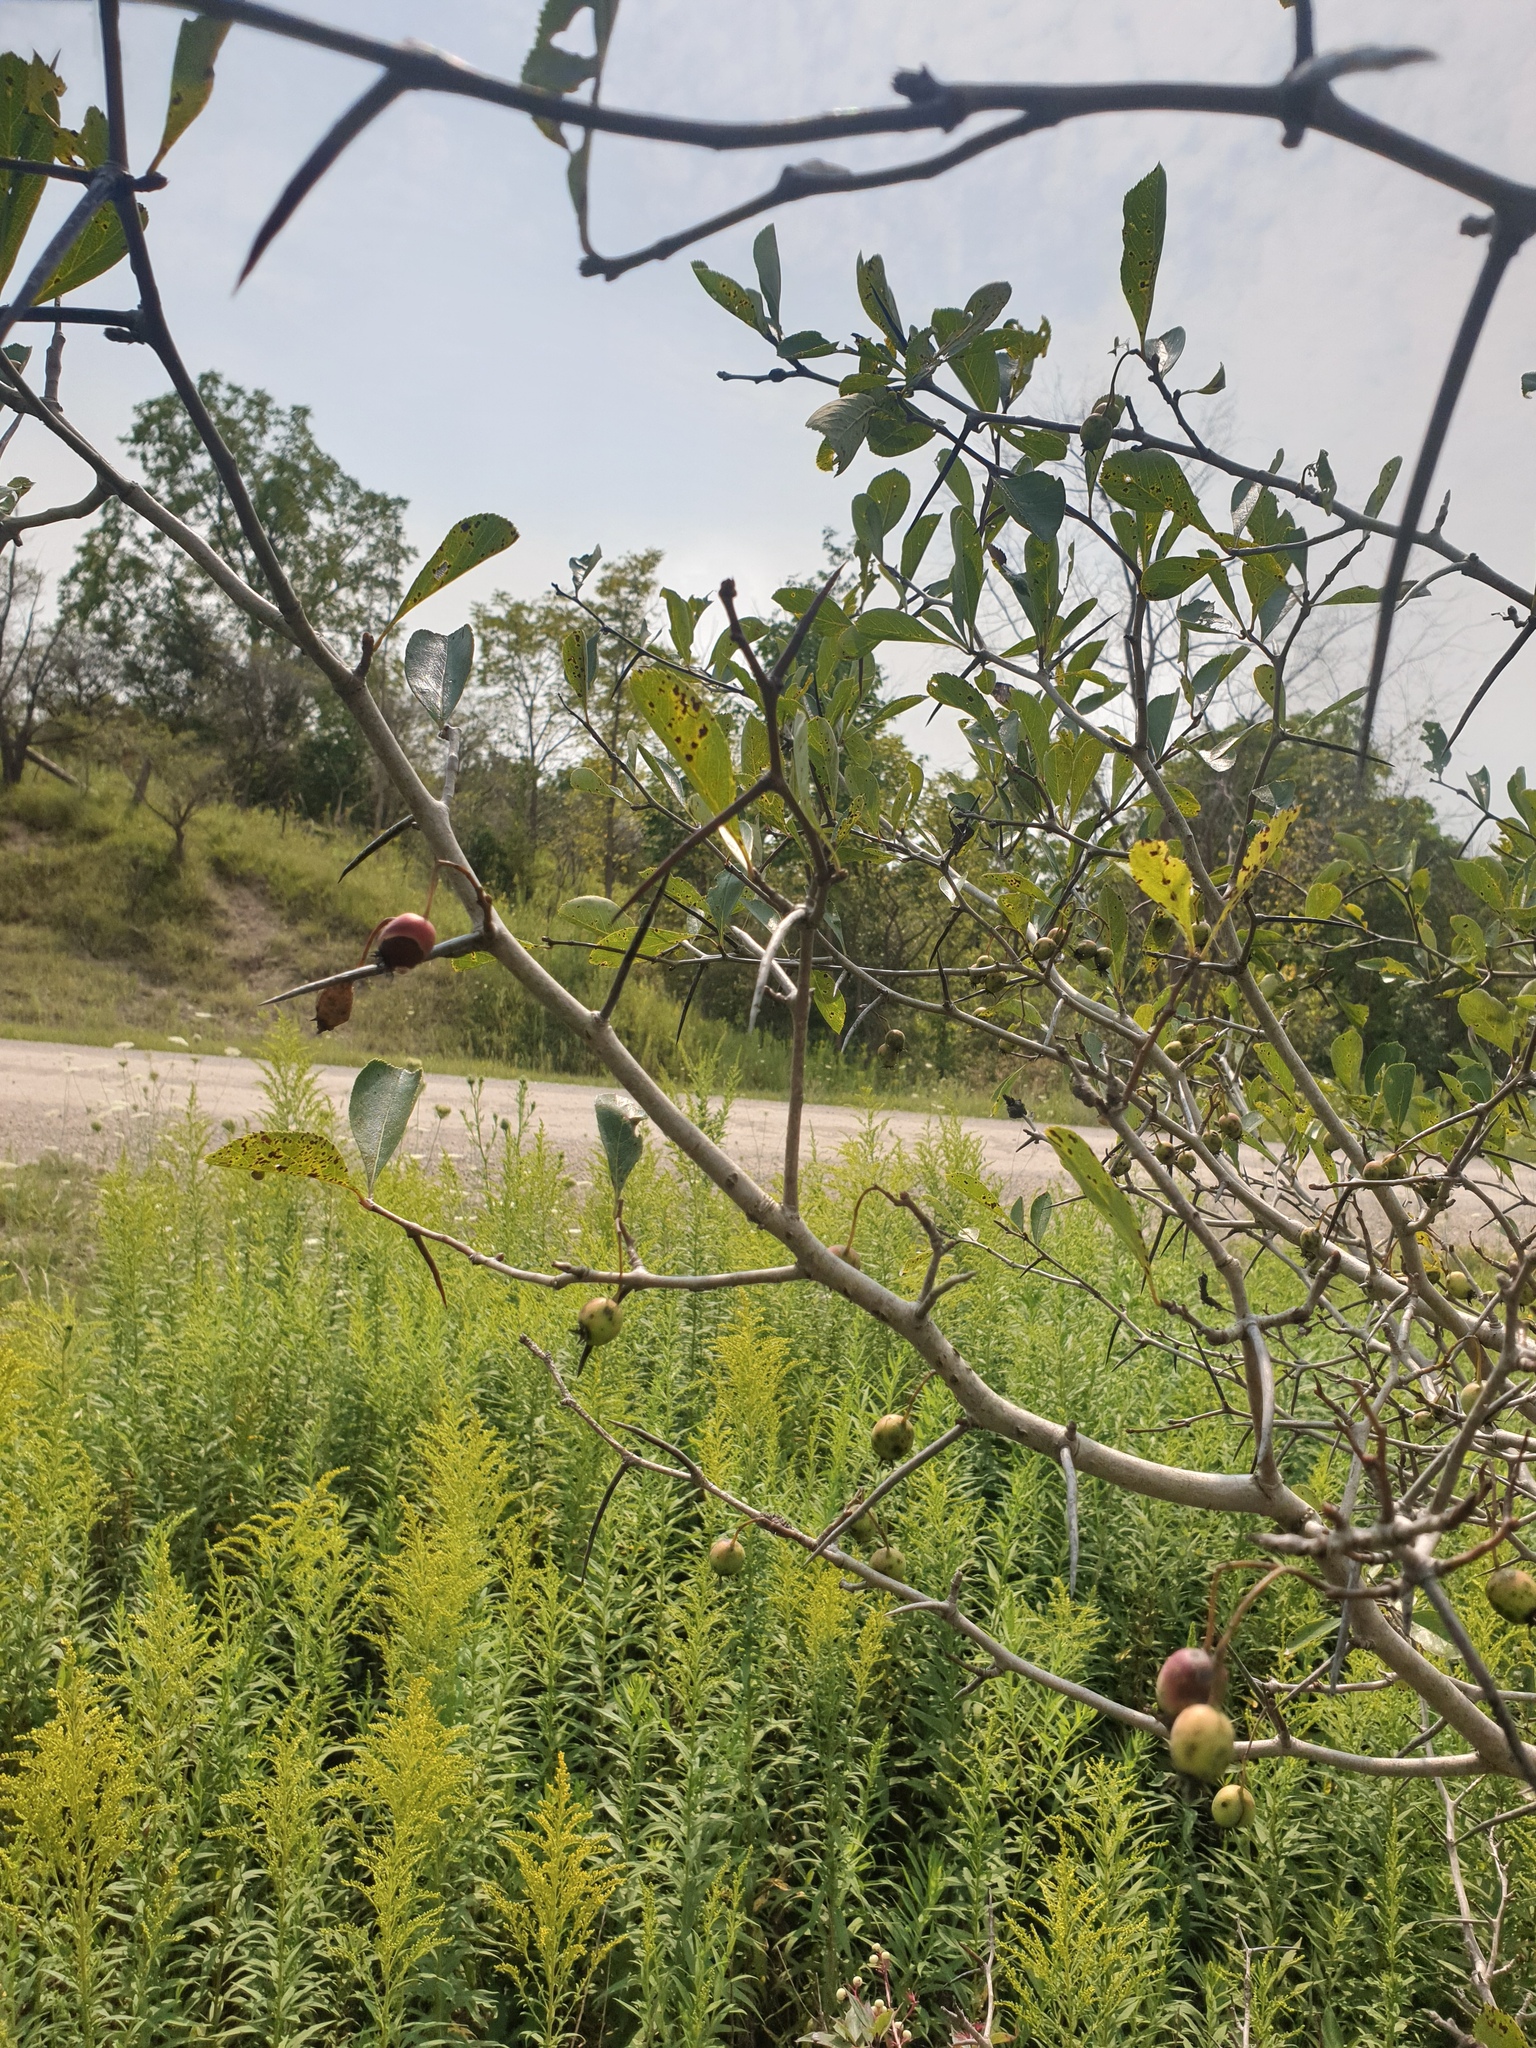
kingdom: Plantae
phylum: Tracheophyta
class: Magnoliopsida
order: Rosales
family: Rosaceae
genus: Crataegus
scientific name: Crataegus crus-galli
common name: Cockspurthorn
